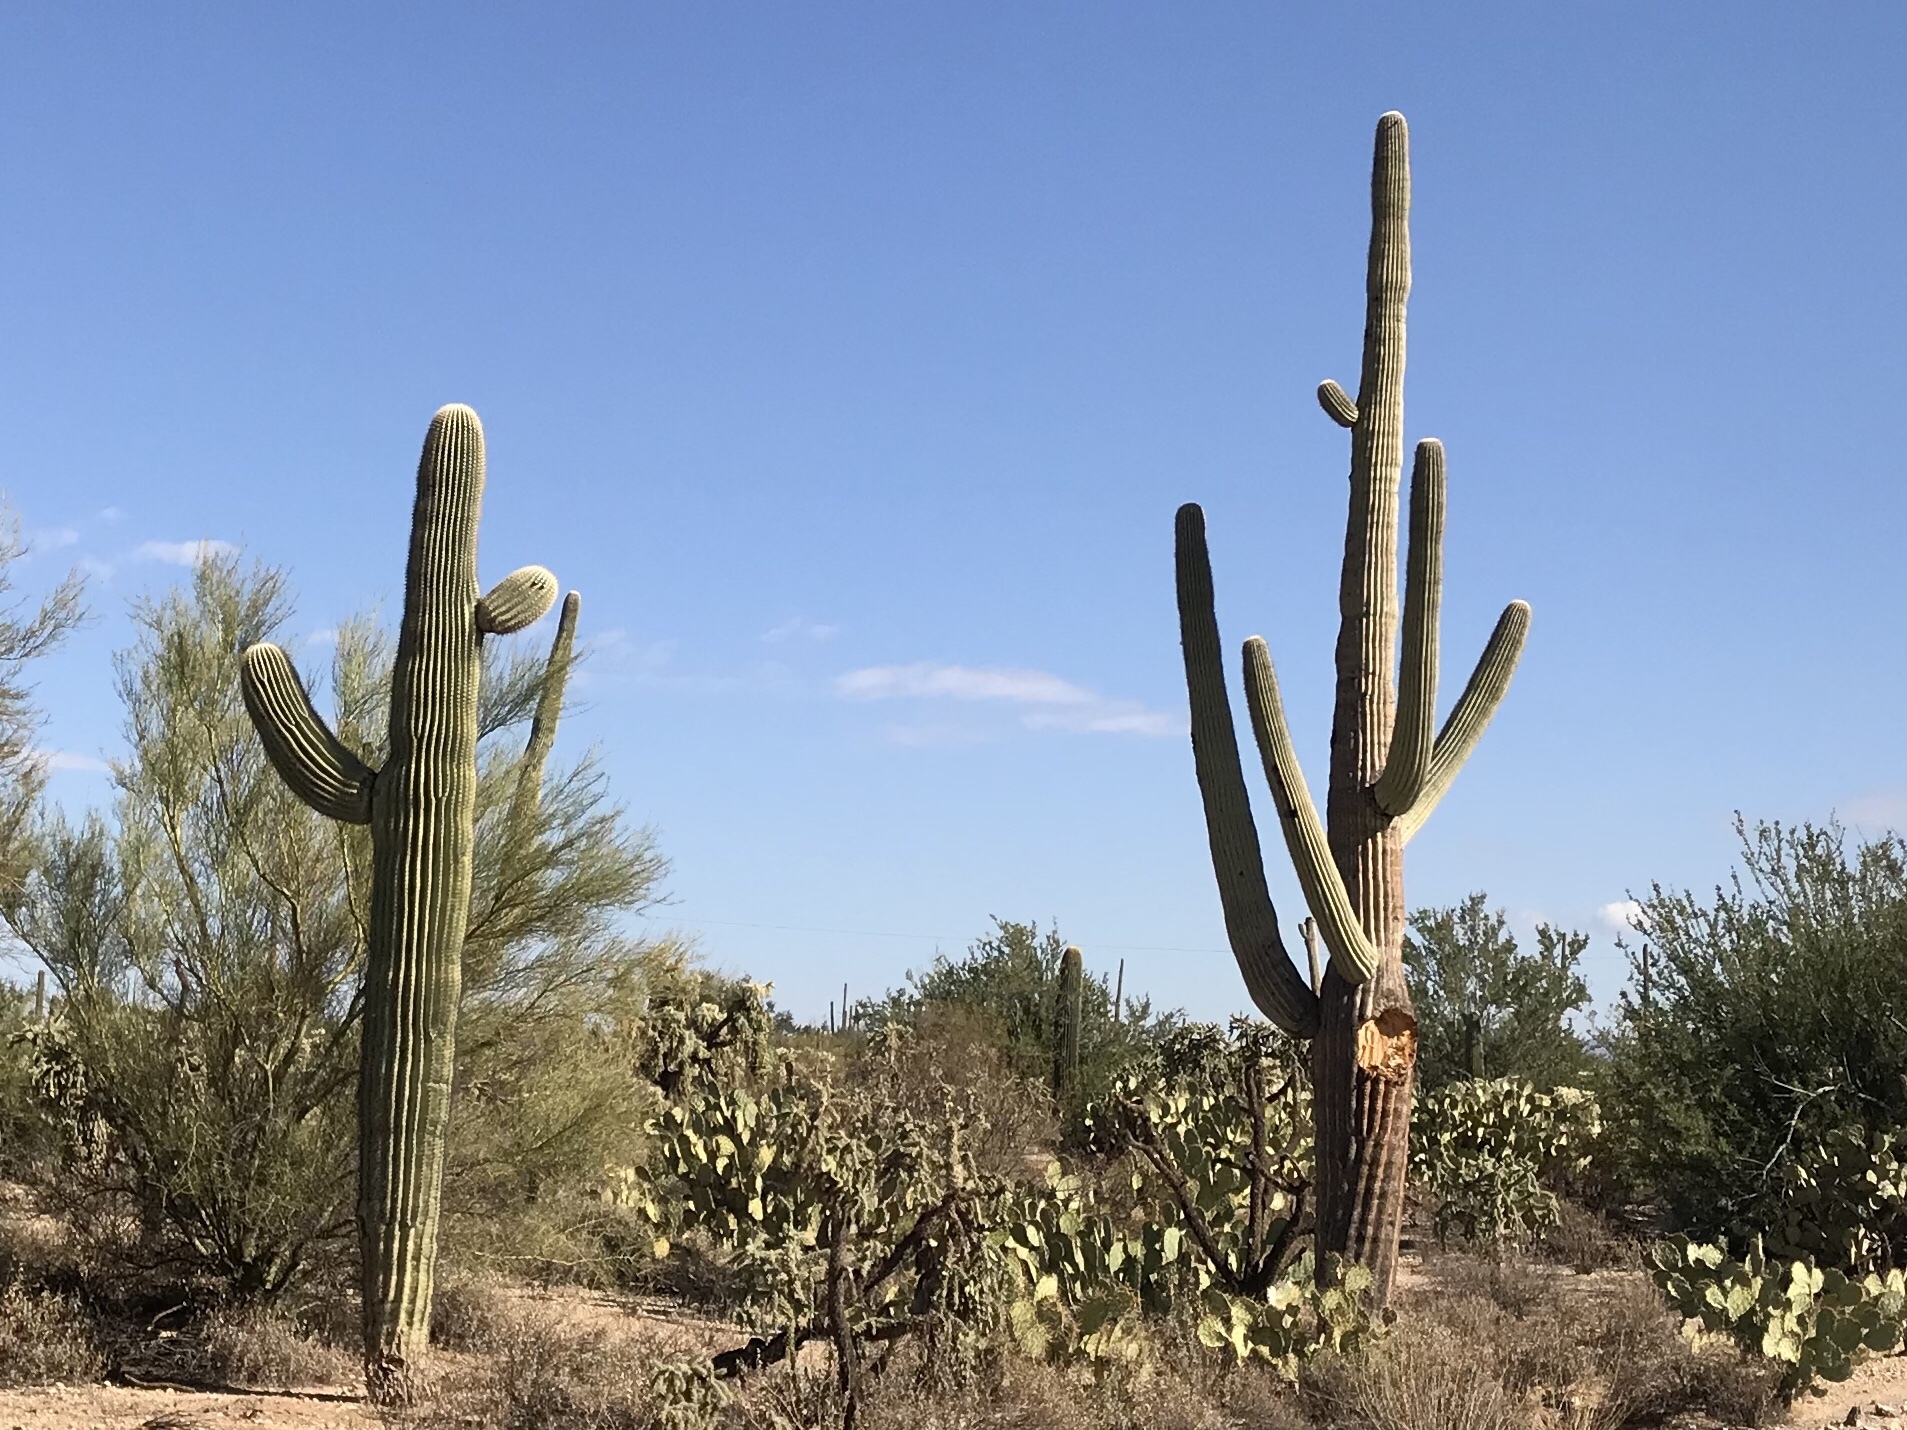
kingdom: Plantae
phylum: Tracheophyta
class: Magnoliopsida
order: Caryophyllales
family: Cactaceae
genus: Carnegiea
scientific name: Carnegiea gigantea
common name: Saguaro
